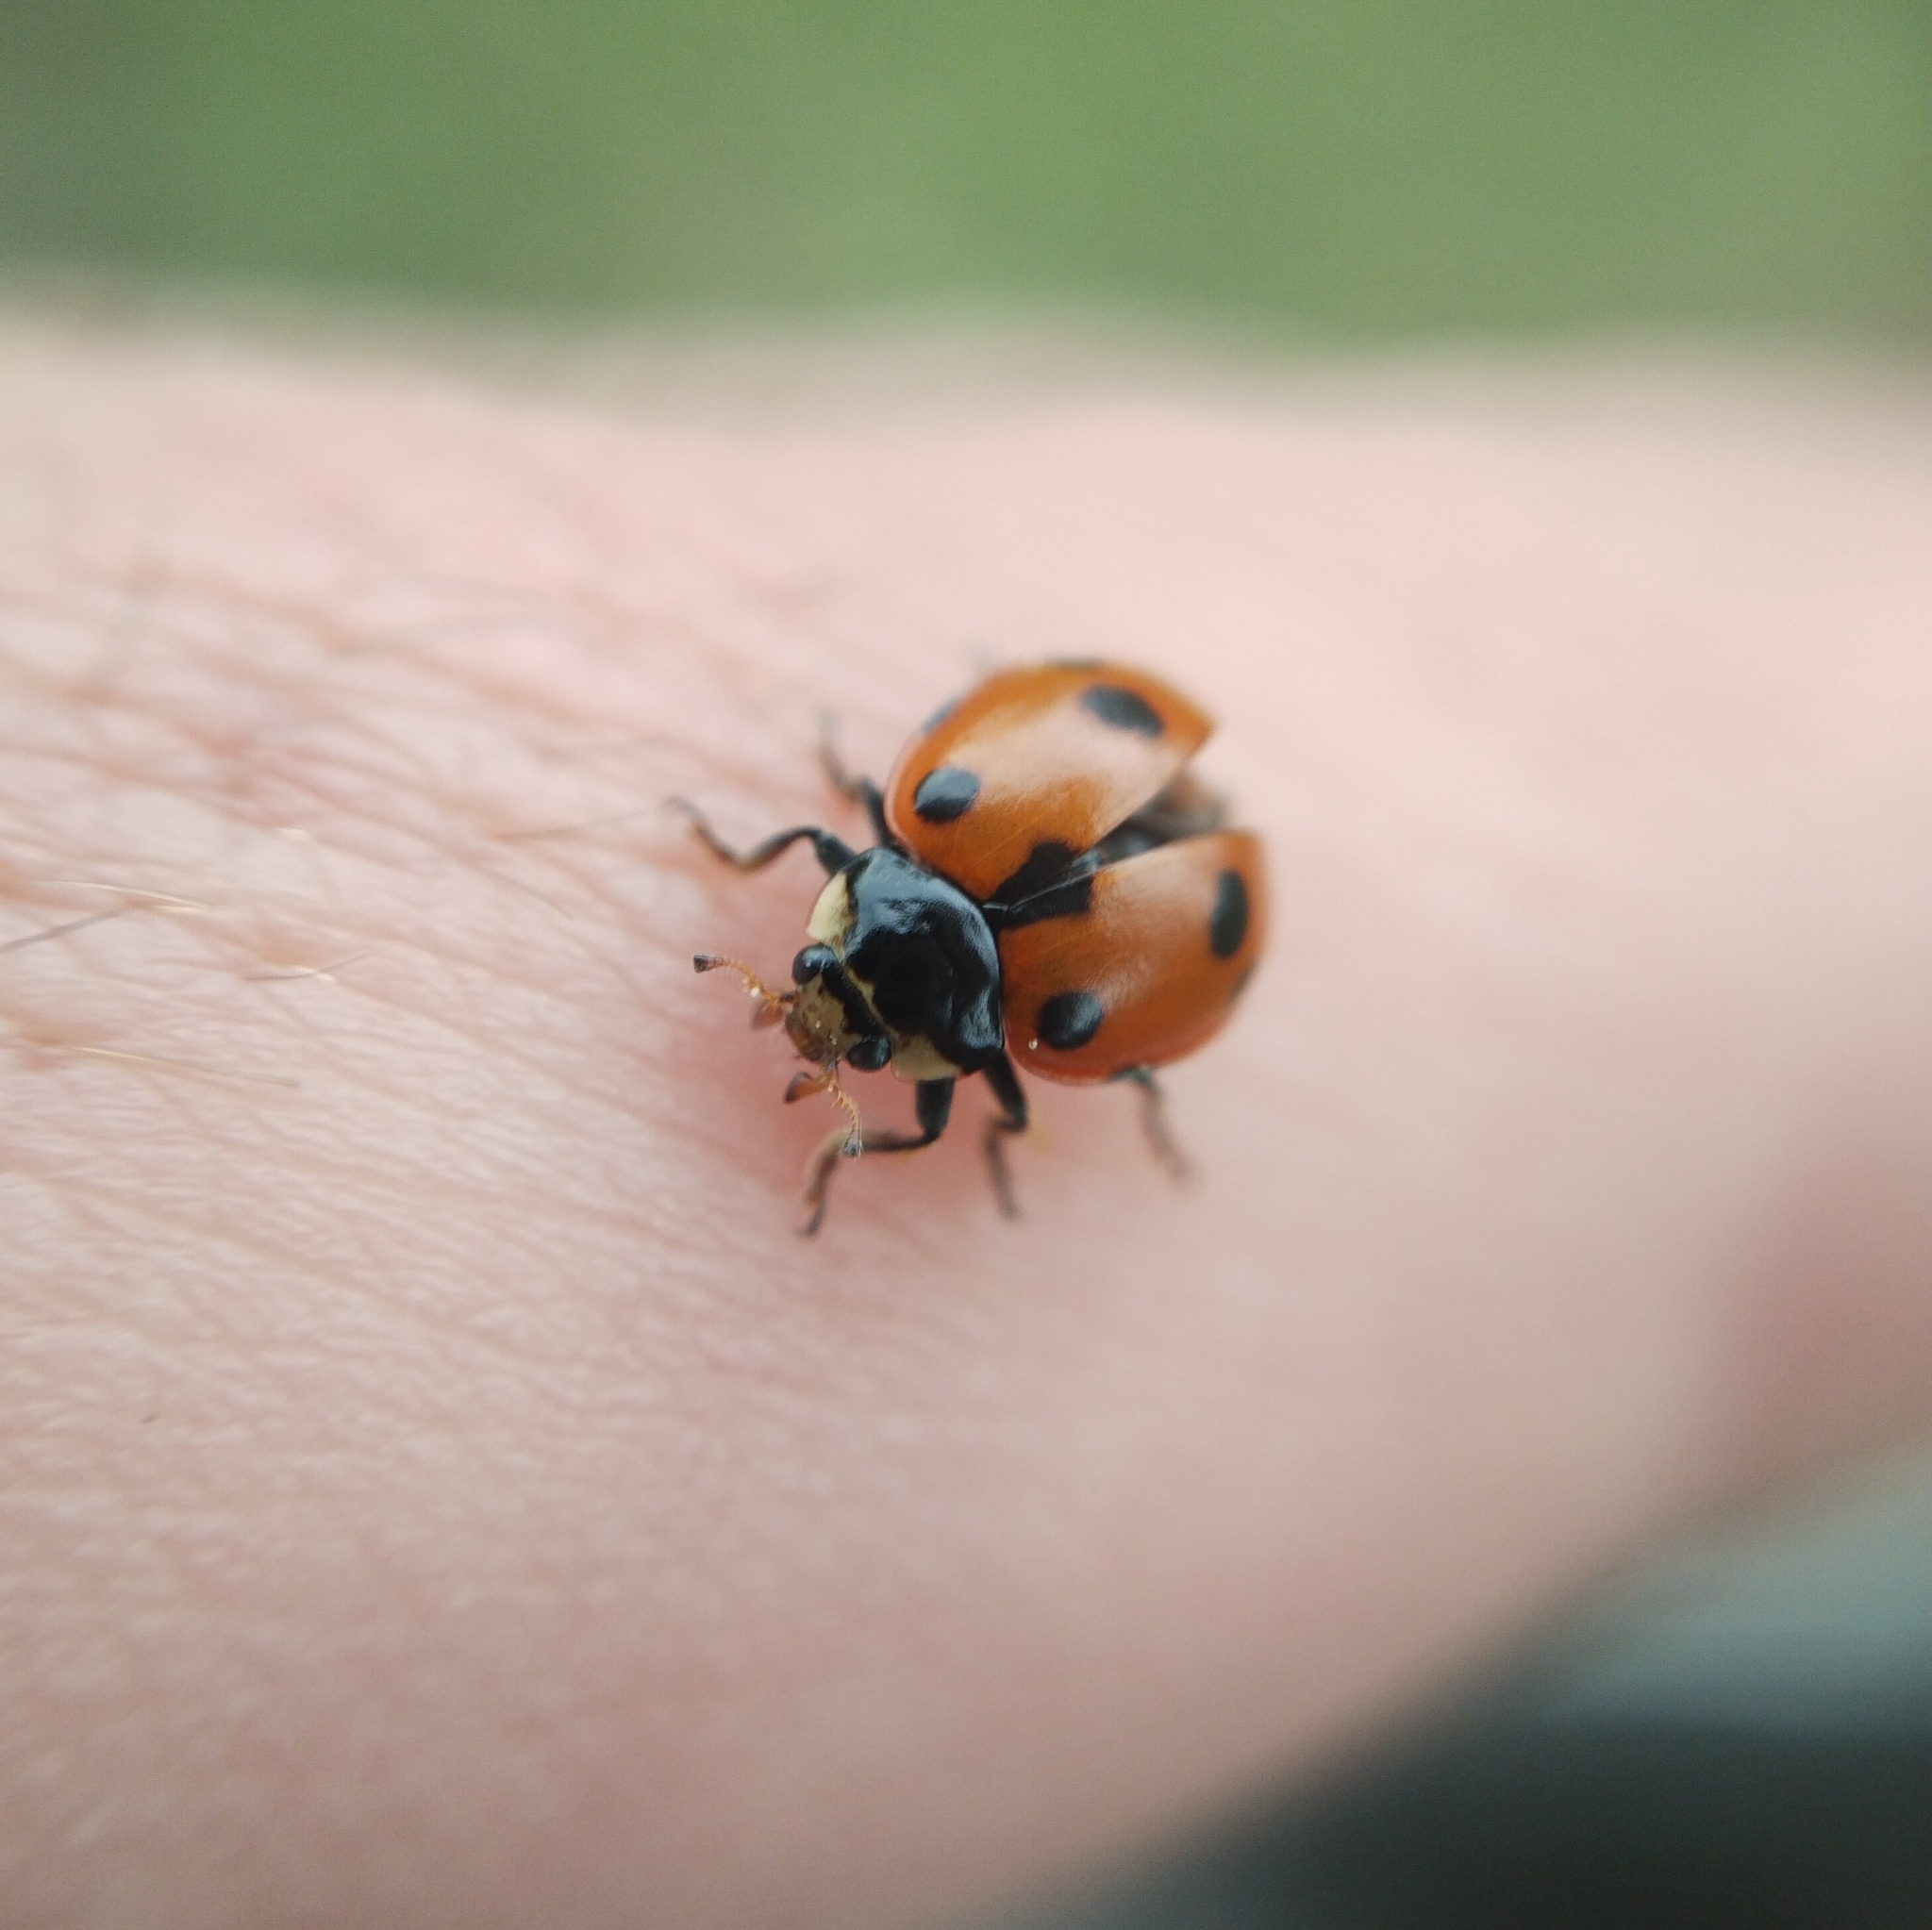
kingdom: Animalia
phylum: Arthropoda
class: Insecta
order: Coleoptera
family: Coccinellidae
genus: Ceratomegilla
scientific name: Ceratomegilla undecimnotata
